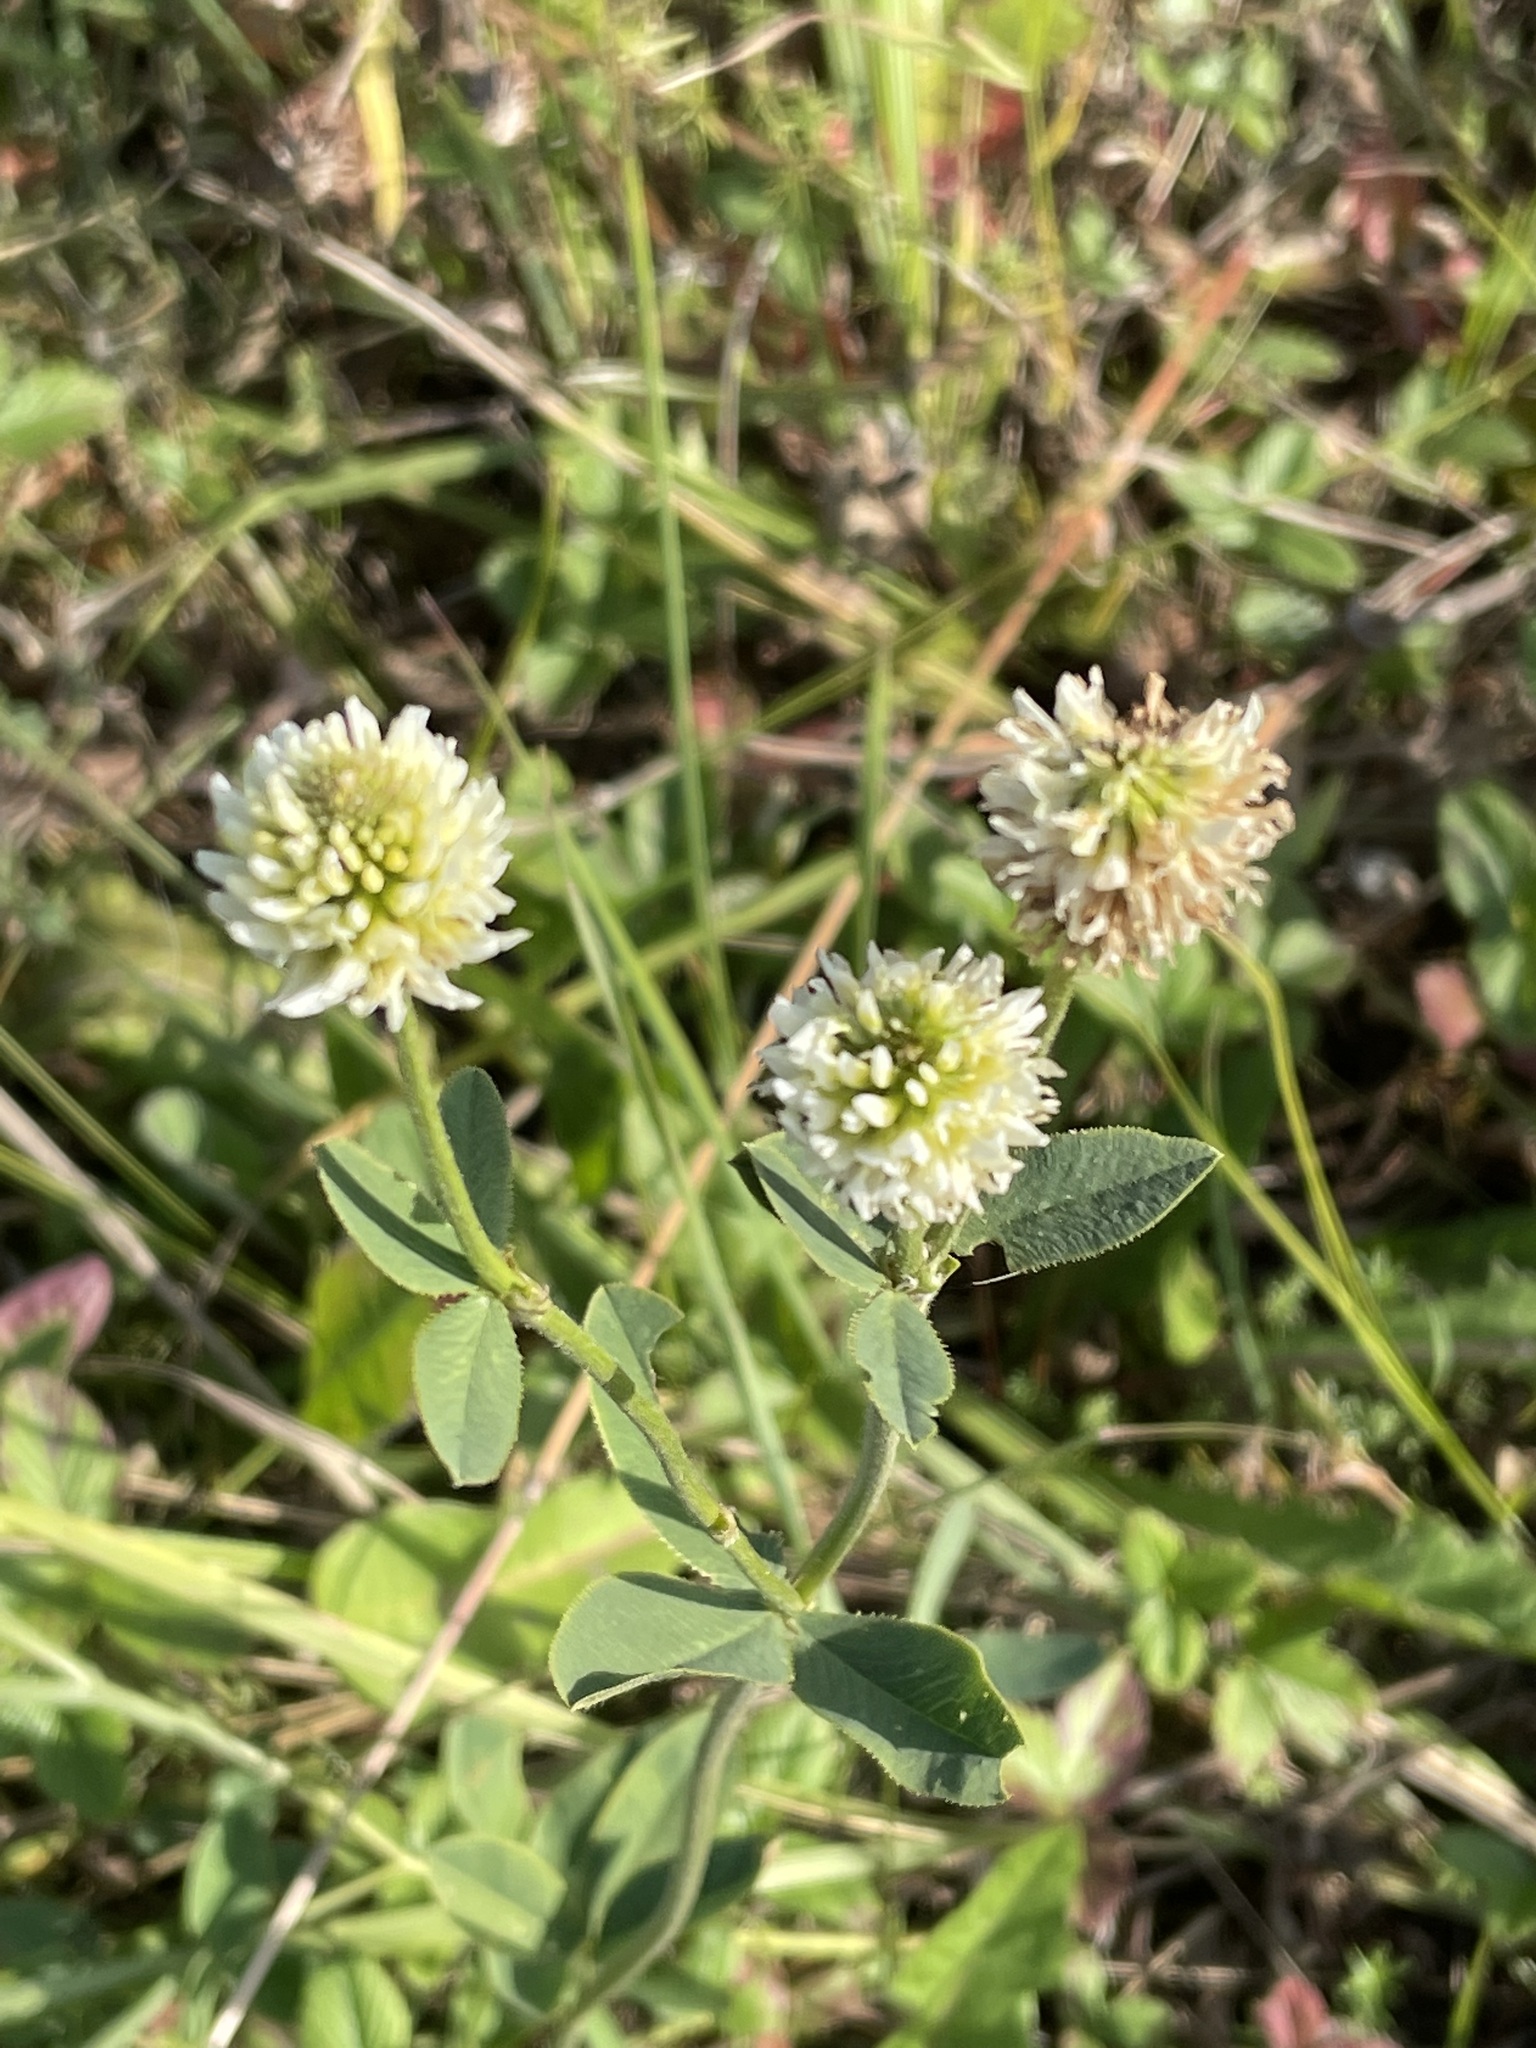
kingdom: Plantae
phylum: Tracheophyta
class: Magnoliopsida
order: Fabales
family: Fabaceae
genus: Trifolium
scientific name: Trifolium montanum
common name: Mountain clover
